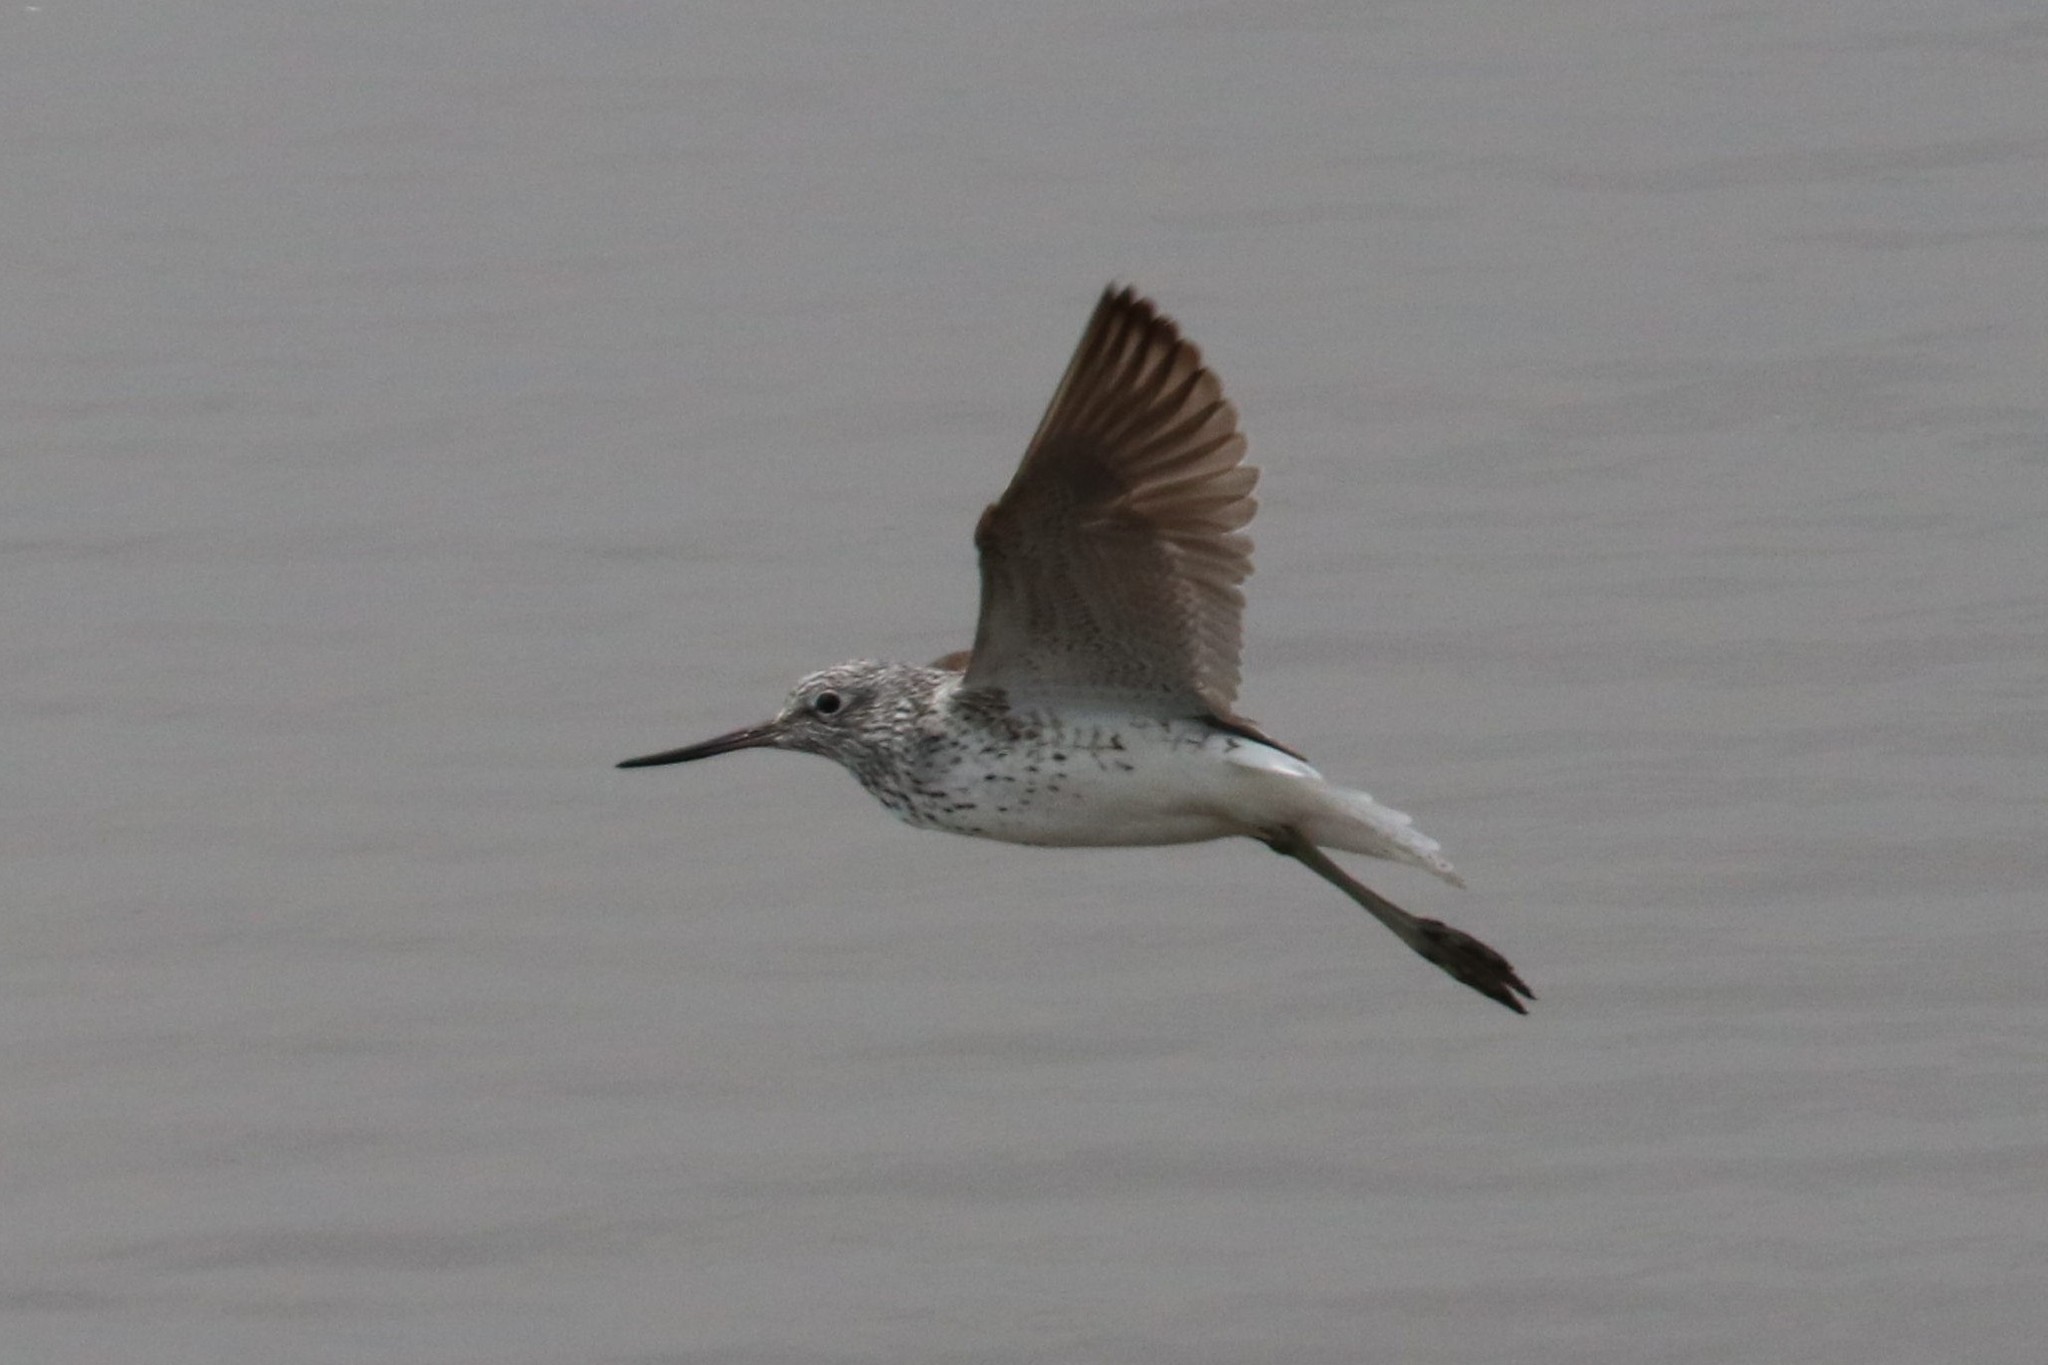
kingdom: Animalia
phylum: Chordata
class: Aves
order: Charadriiformes
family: Scolopacidae
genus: Tringa
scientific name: Tringa nebularia
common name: Common greenshank
